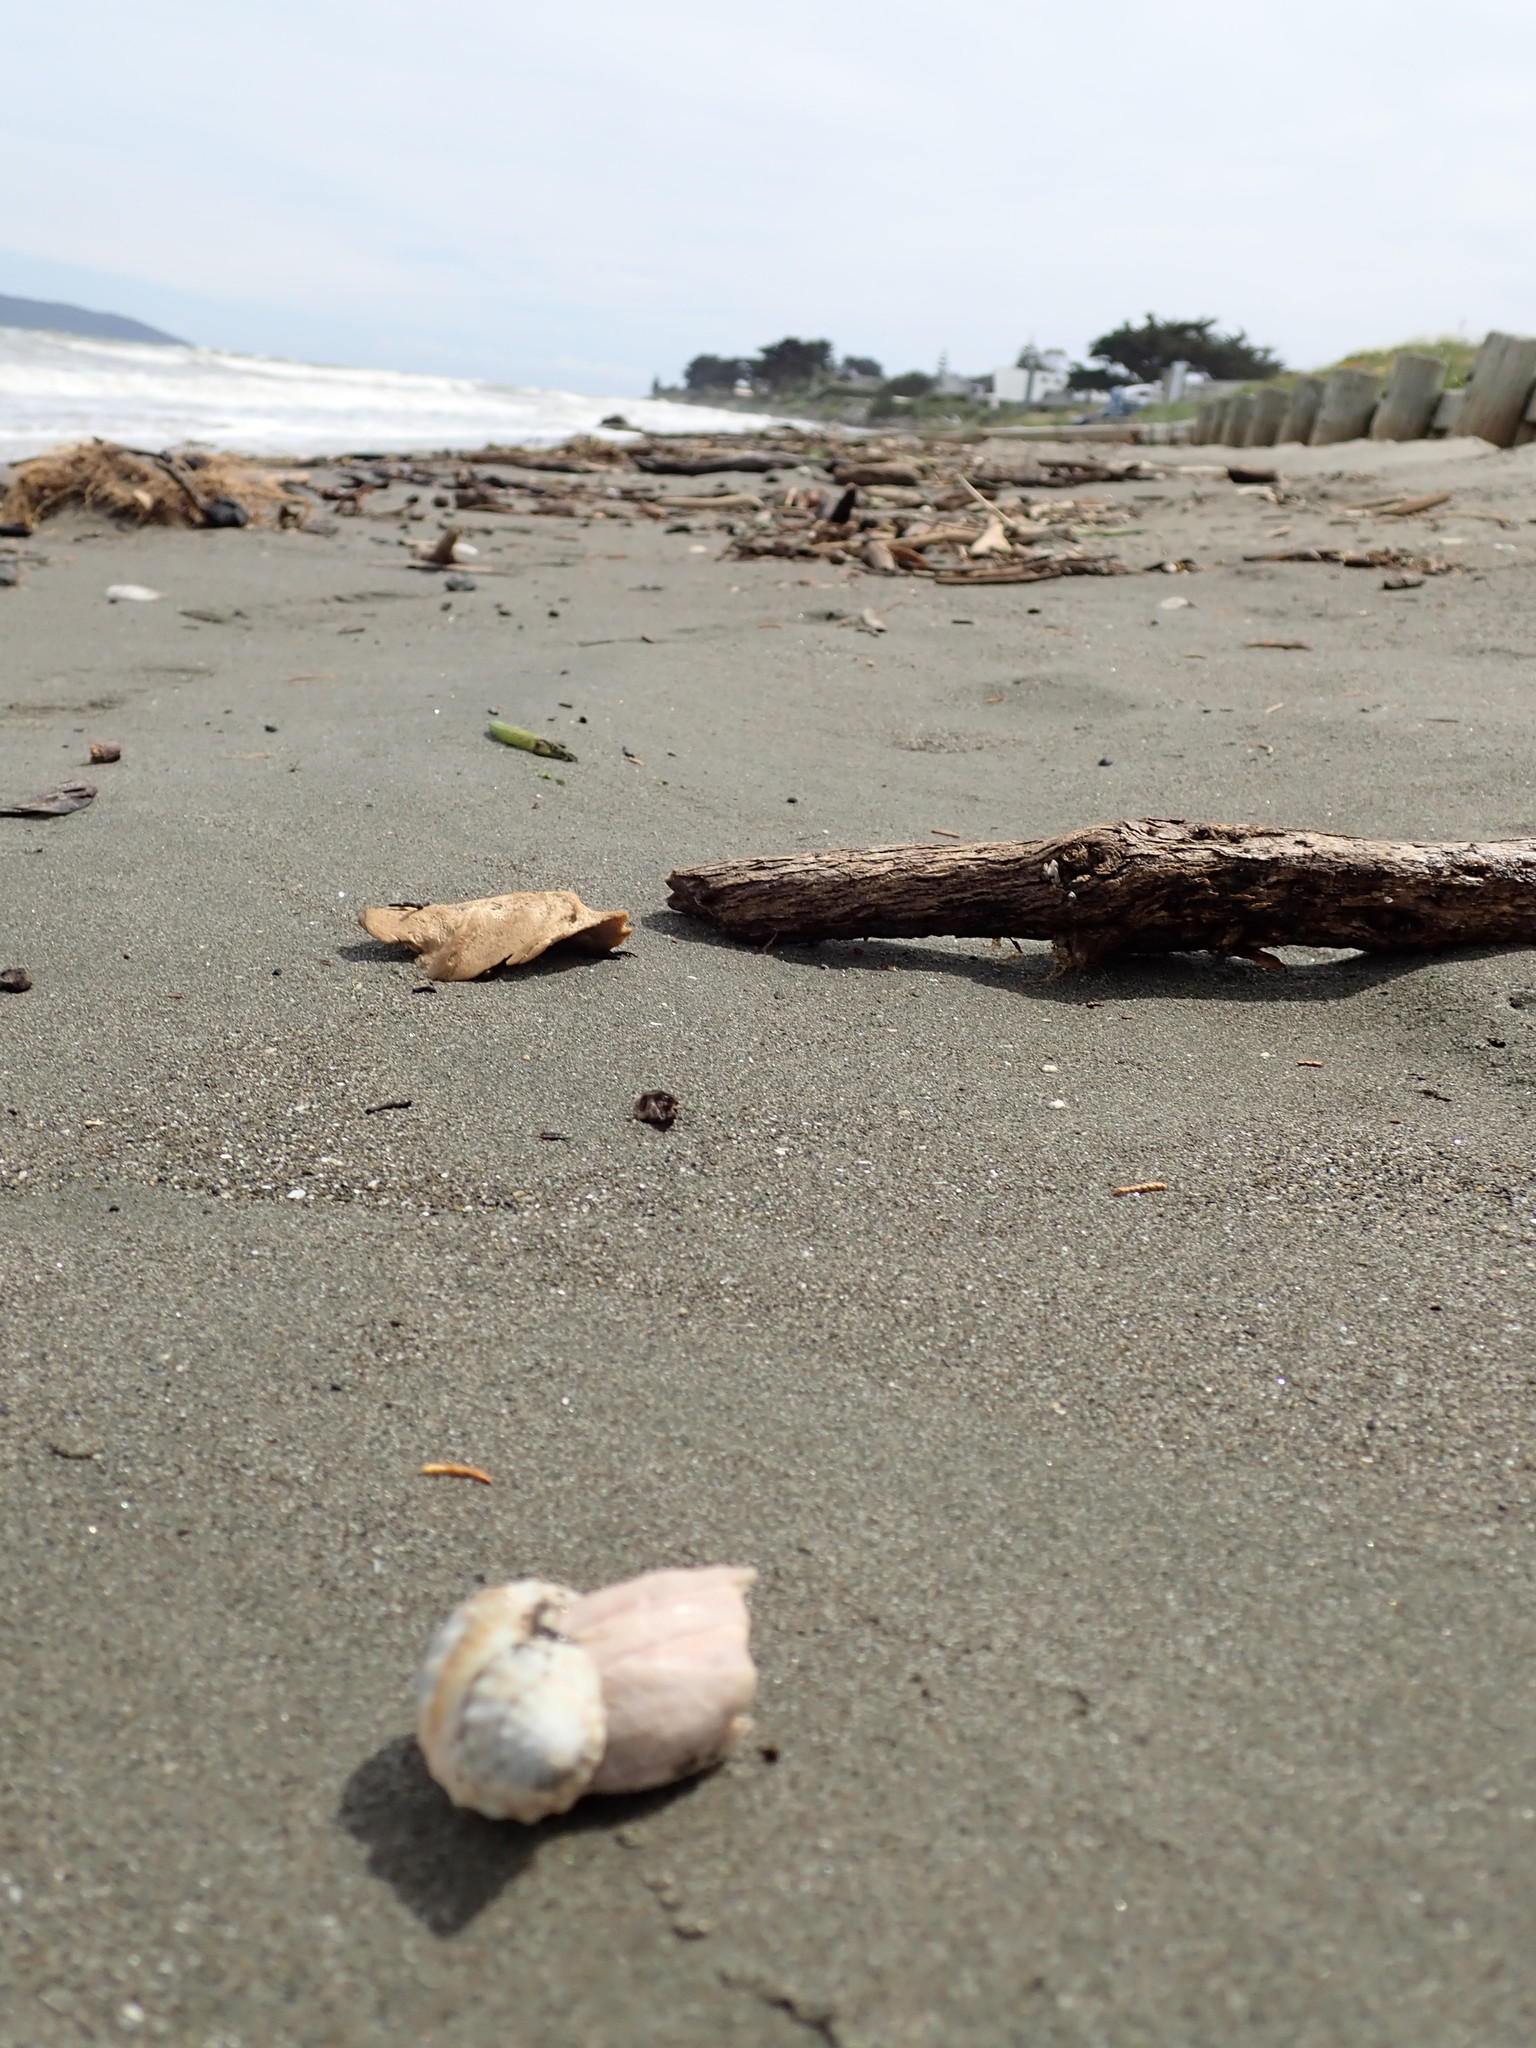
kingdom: Animalia
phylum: Arthropoda
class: Maxillopoda
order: Sessilia
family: Balanidae
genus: Notomegabalanus
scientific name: Notomegabalanus decorus
